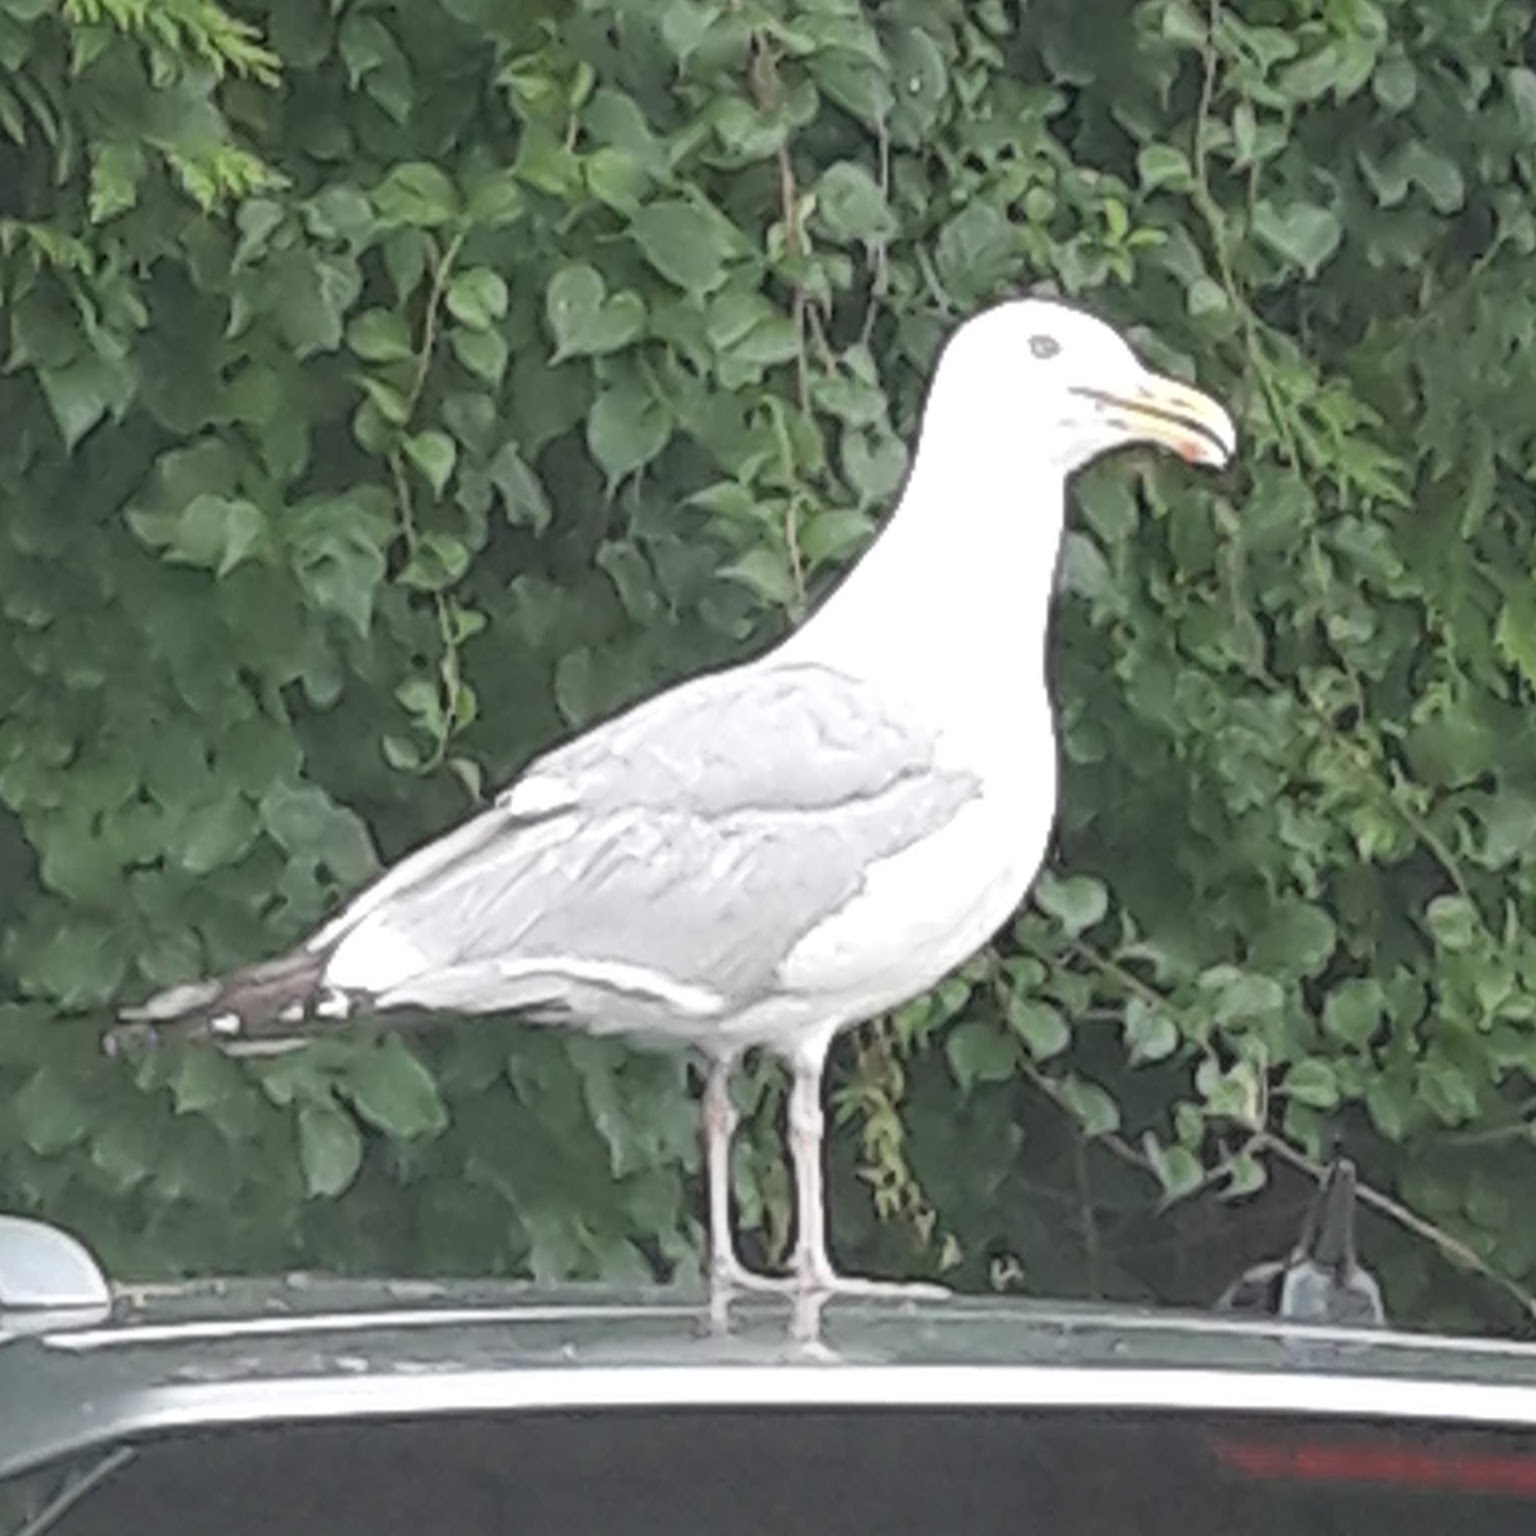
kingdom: Animalia
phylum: Chordata
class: Aves
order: Charadriiformes
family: Laridae
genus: Larus
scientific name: Larus argentatus
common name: Herring gull
